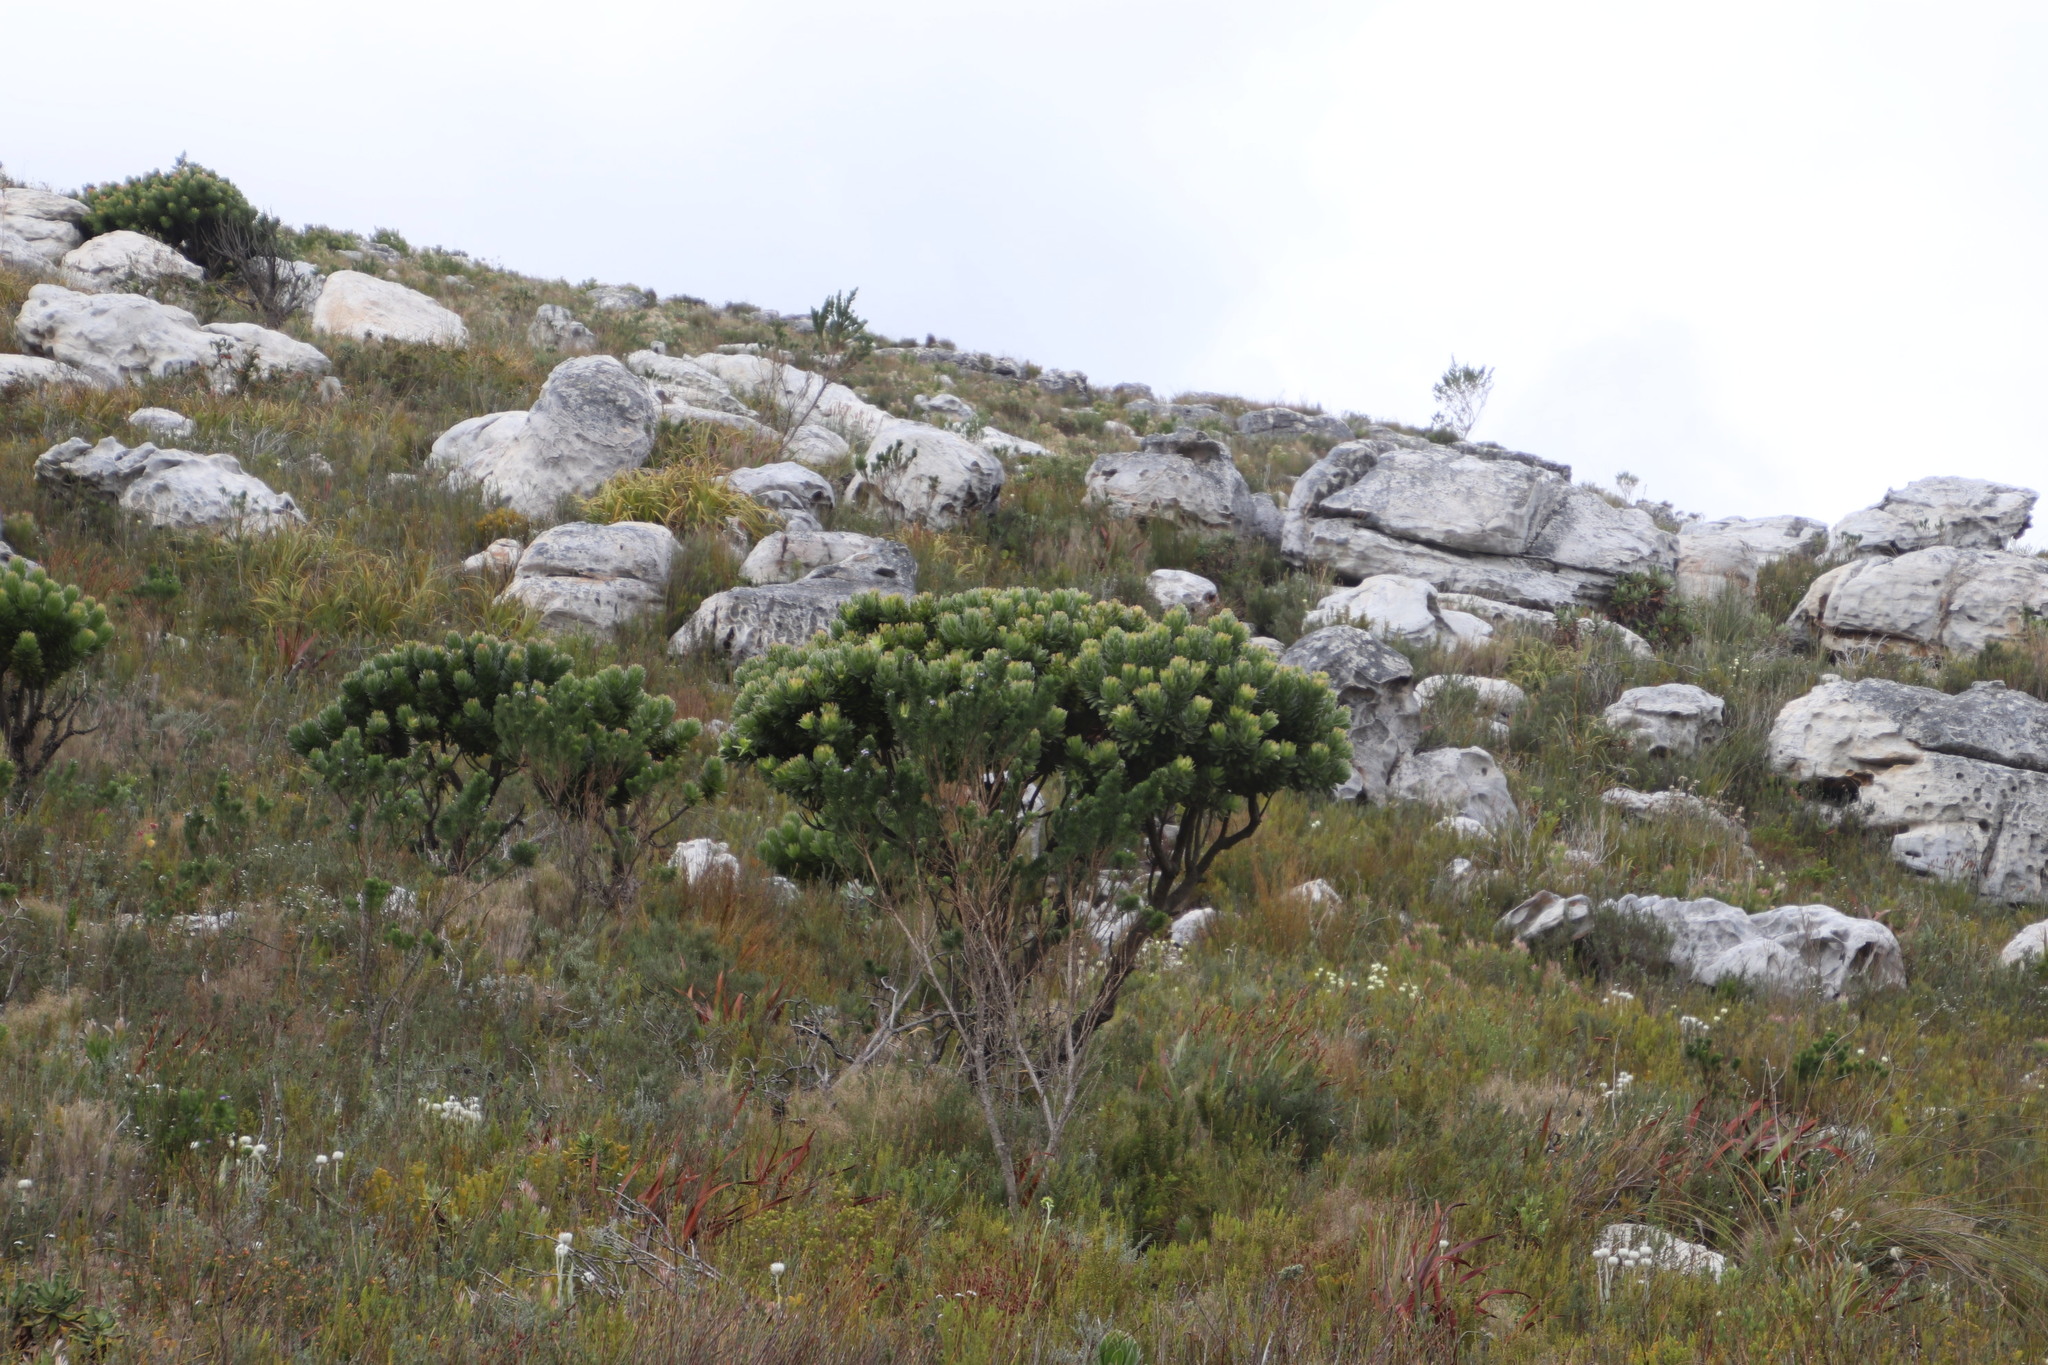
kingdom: Plantae
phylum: Tracheophyta
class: Magnoliopsida
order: Proteales
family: Proteaceae
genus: Leucospermum
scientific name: Leucospermum conocarpodendron
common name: Tree pincushion
